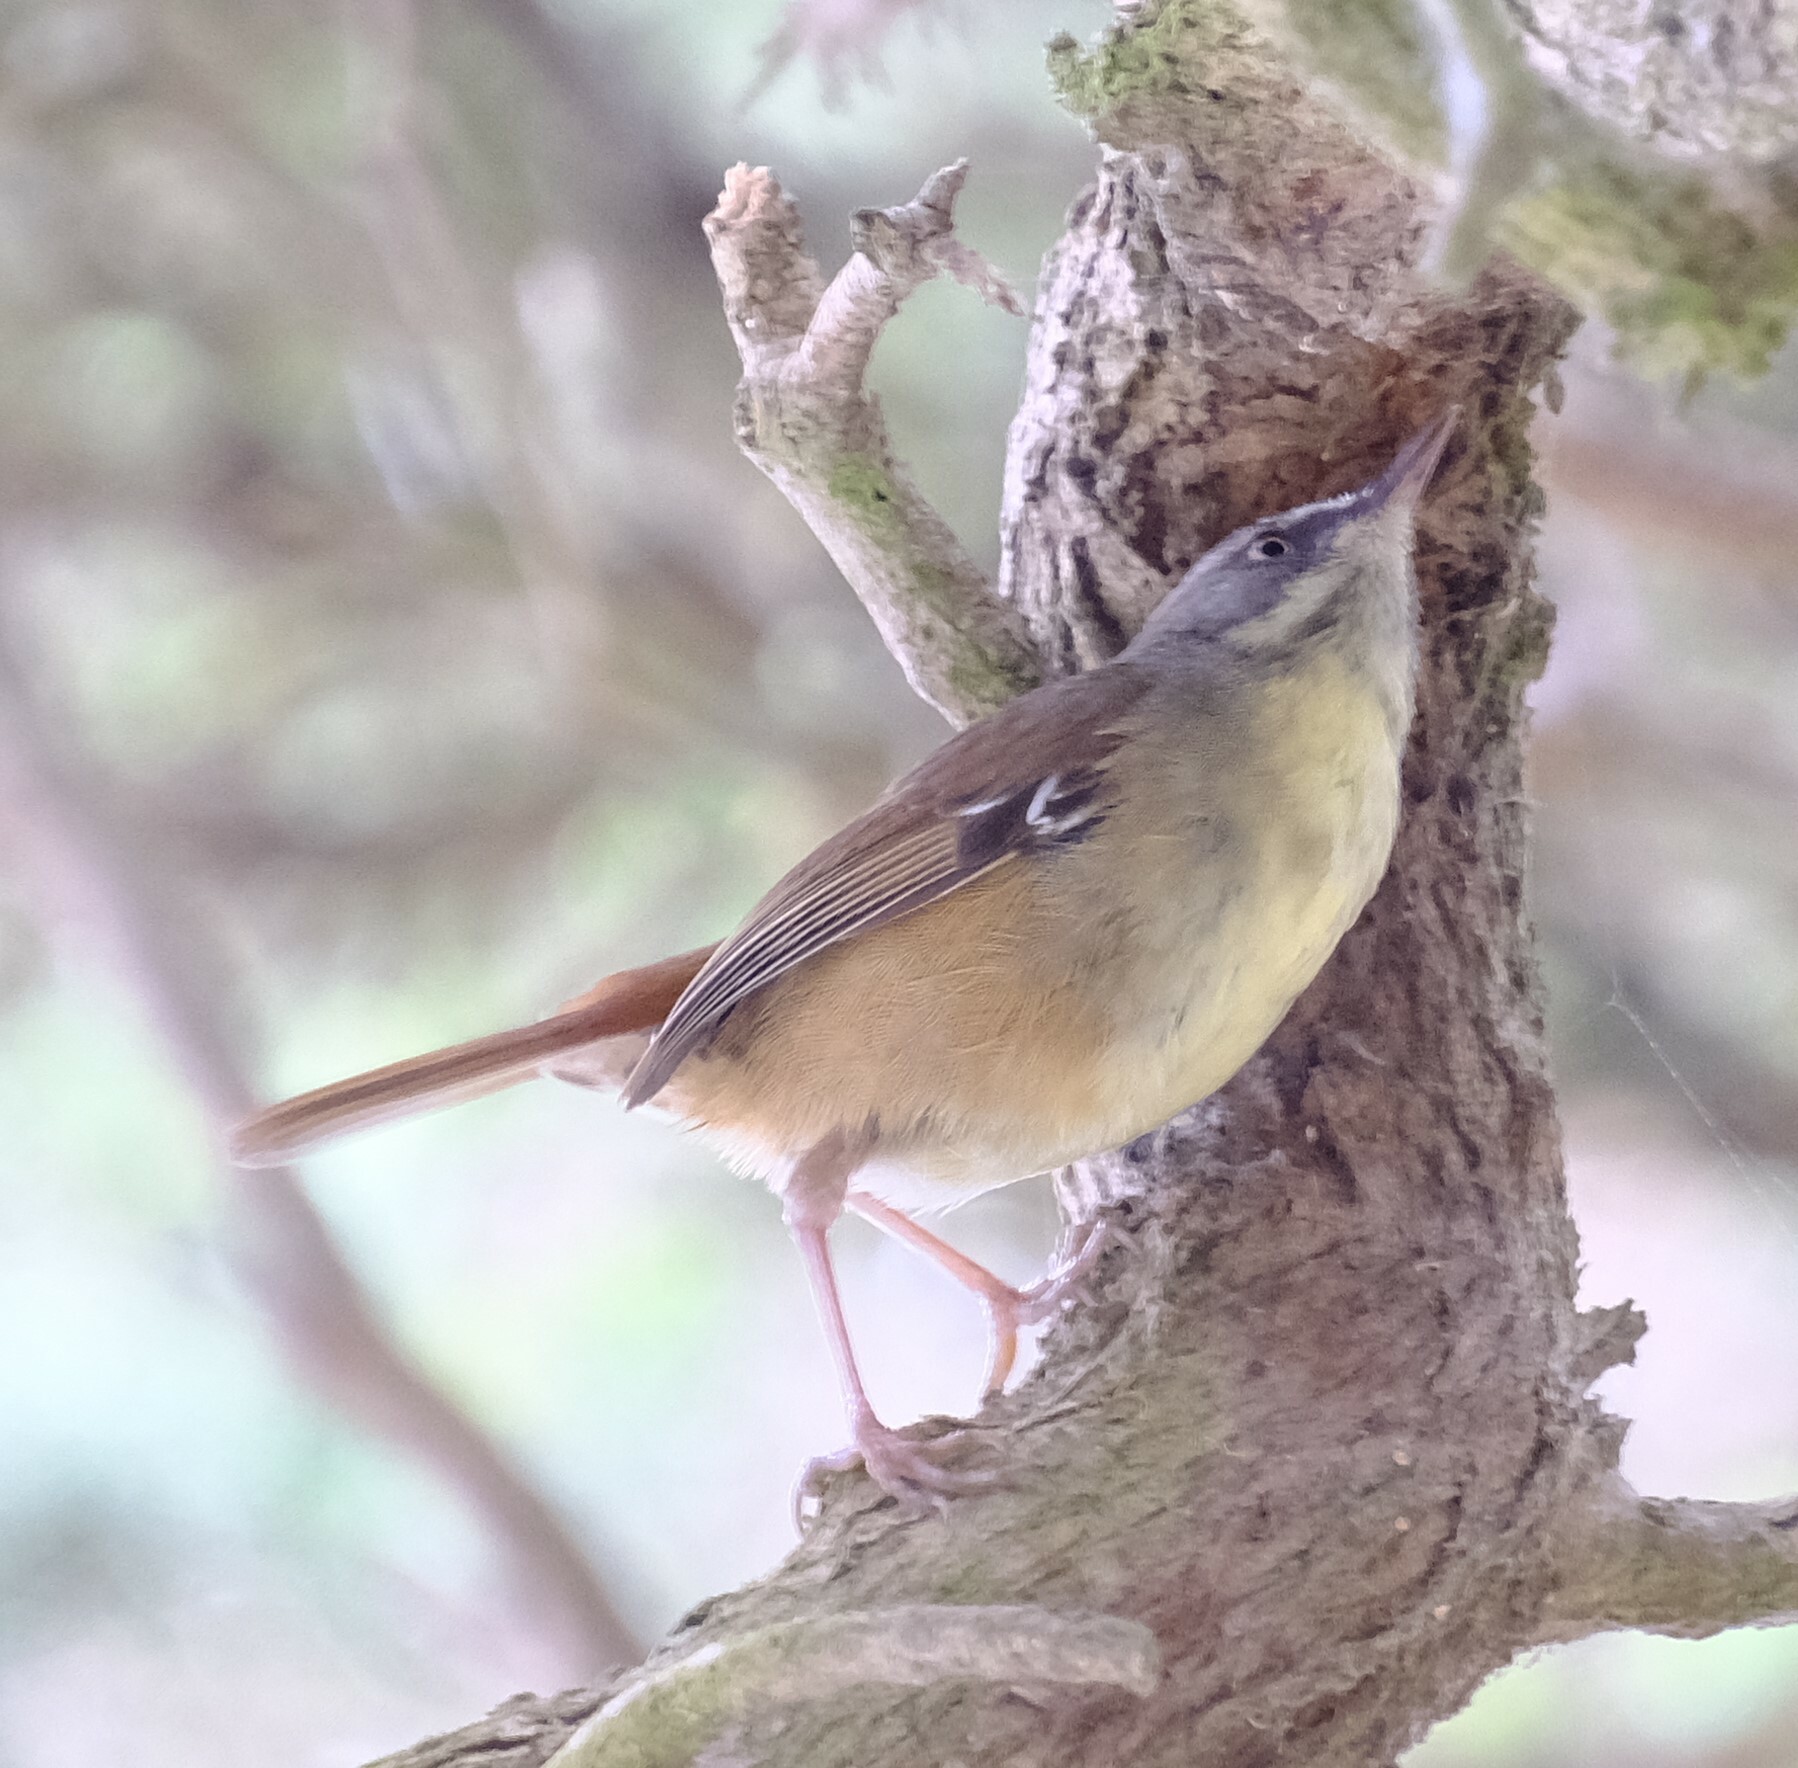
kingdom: Animalia
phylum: Chordata
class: Aves
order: Passeriformes
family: Acanthizidae
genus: Sericornis
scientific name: Sericornis frontalis
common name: White-browed scrubwren
